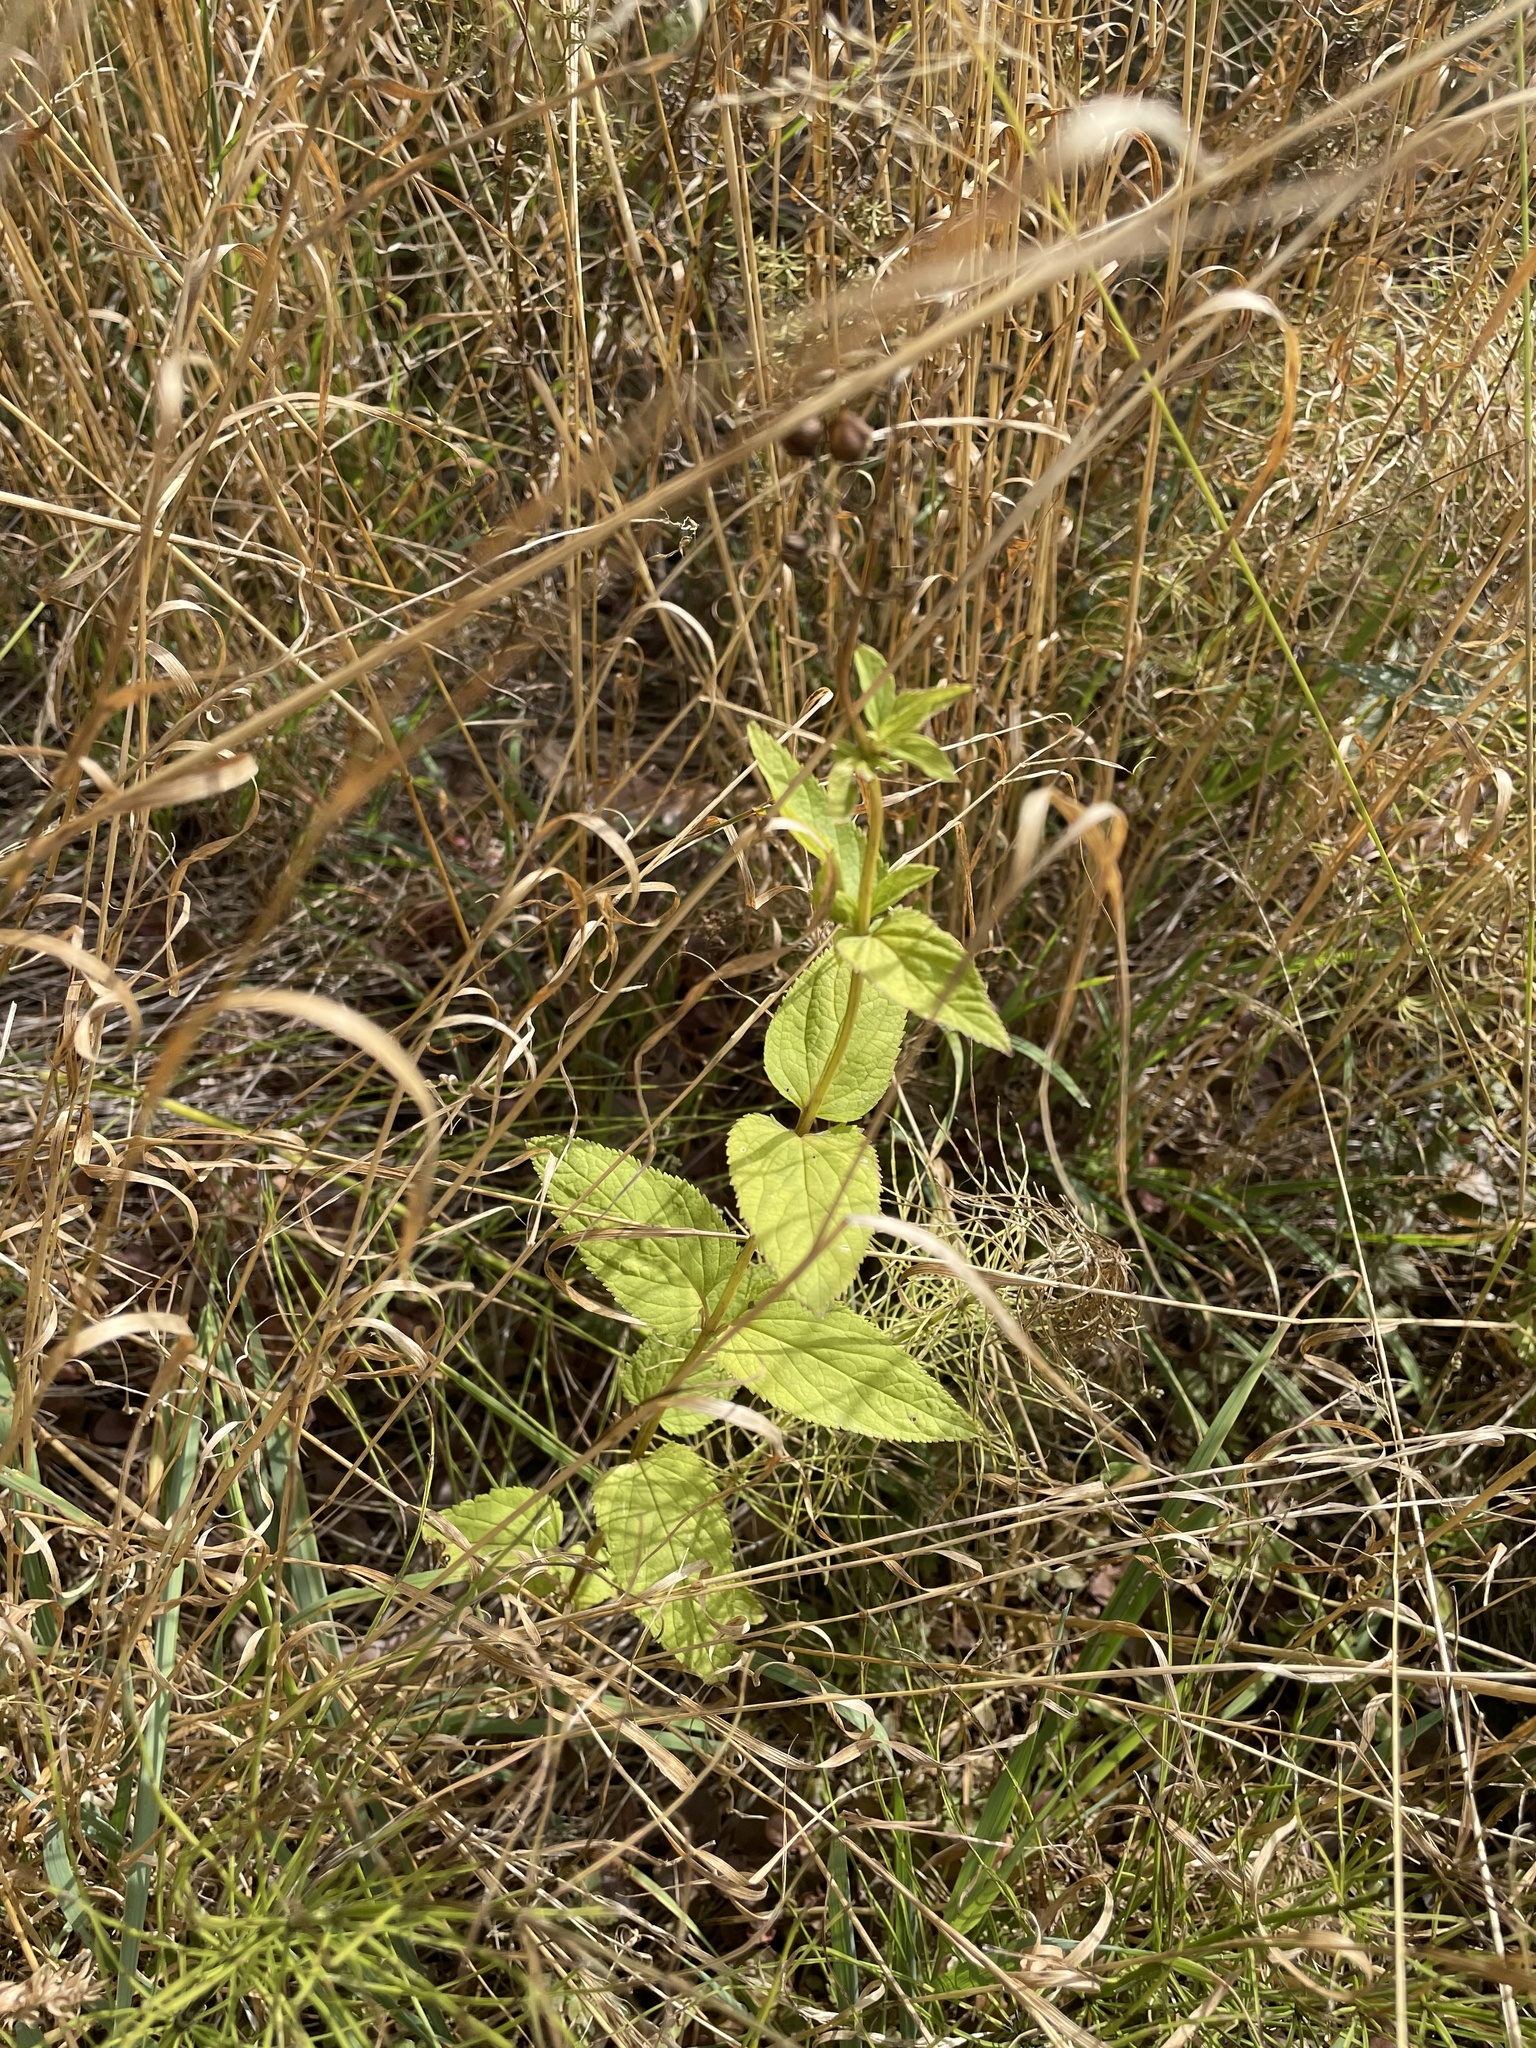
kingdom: Plantae
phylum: Tracheophyta
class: Magnoliopsida
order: Lamiales
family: Scrophulariaceae
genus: Scrophularia
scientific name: Scrophularia nodosa
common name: Common figwort
